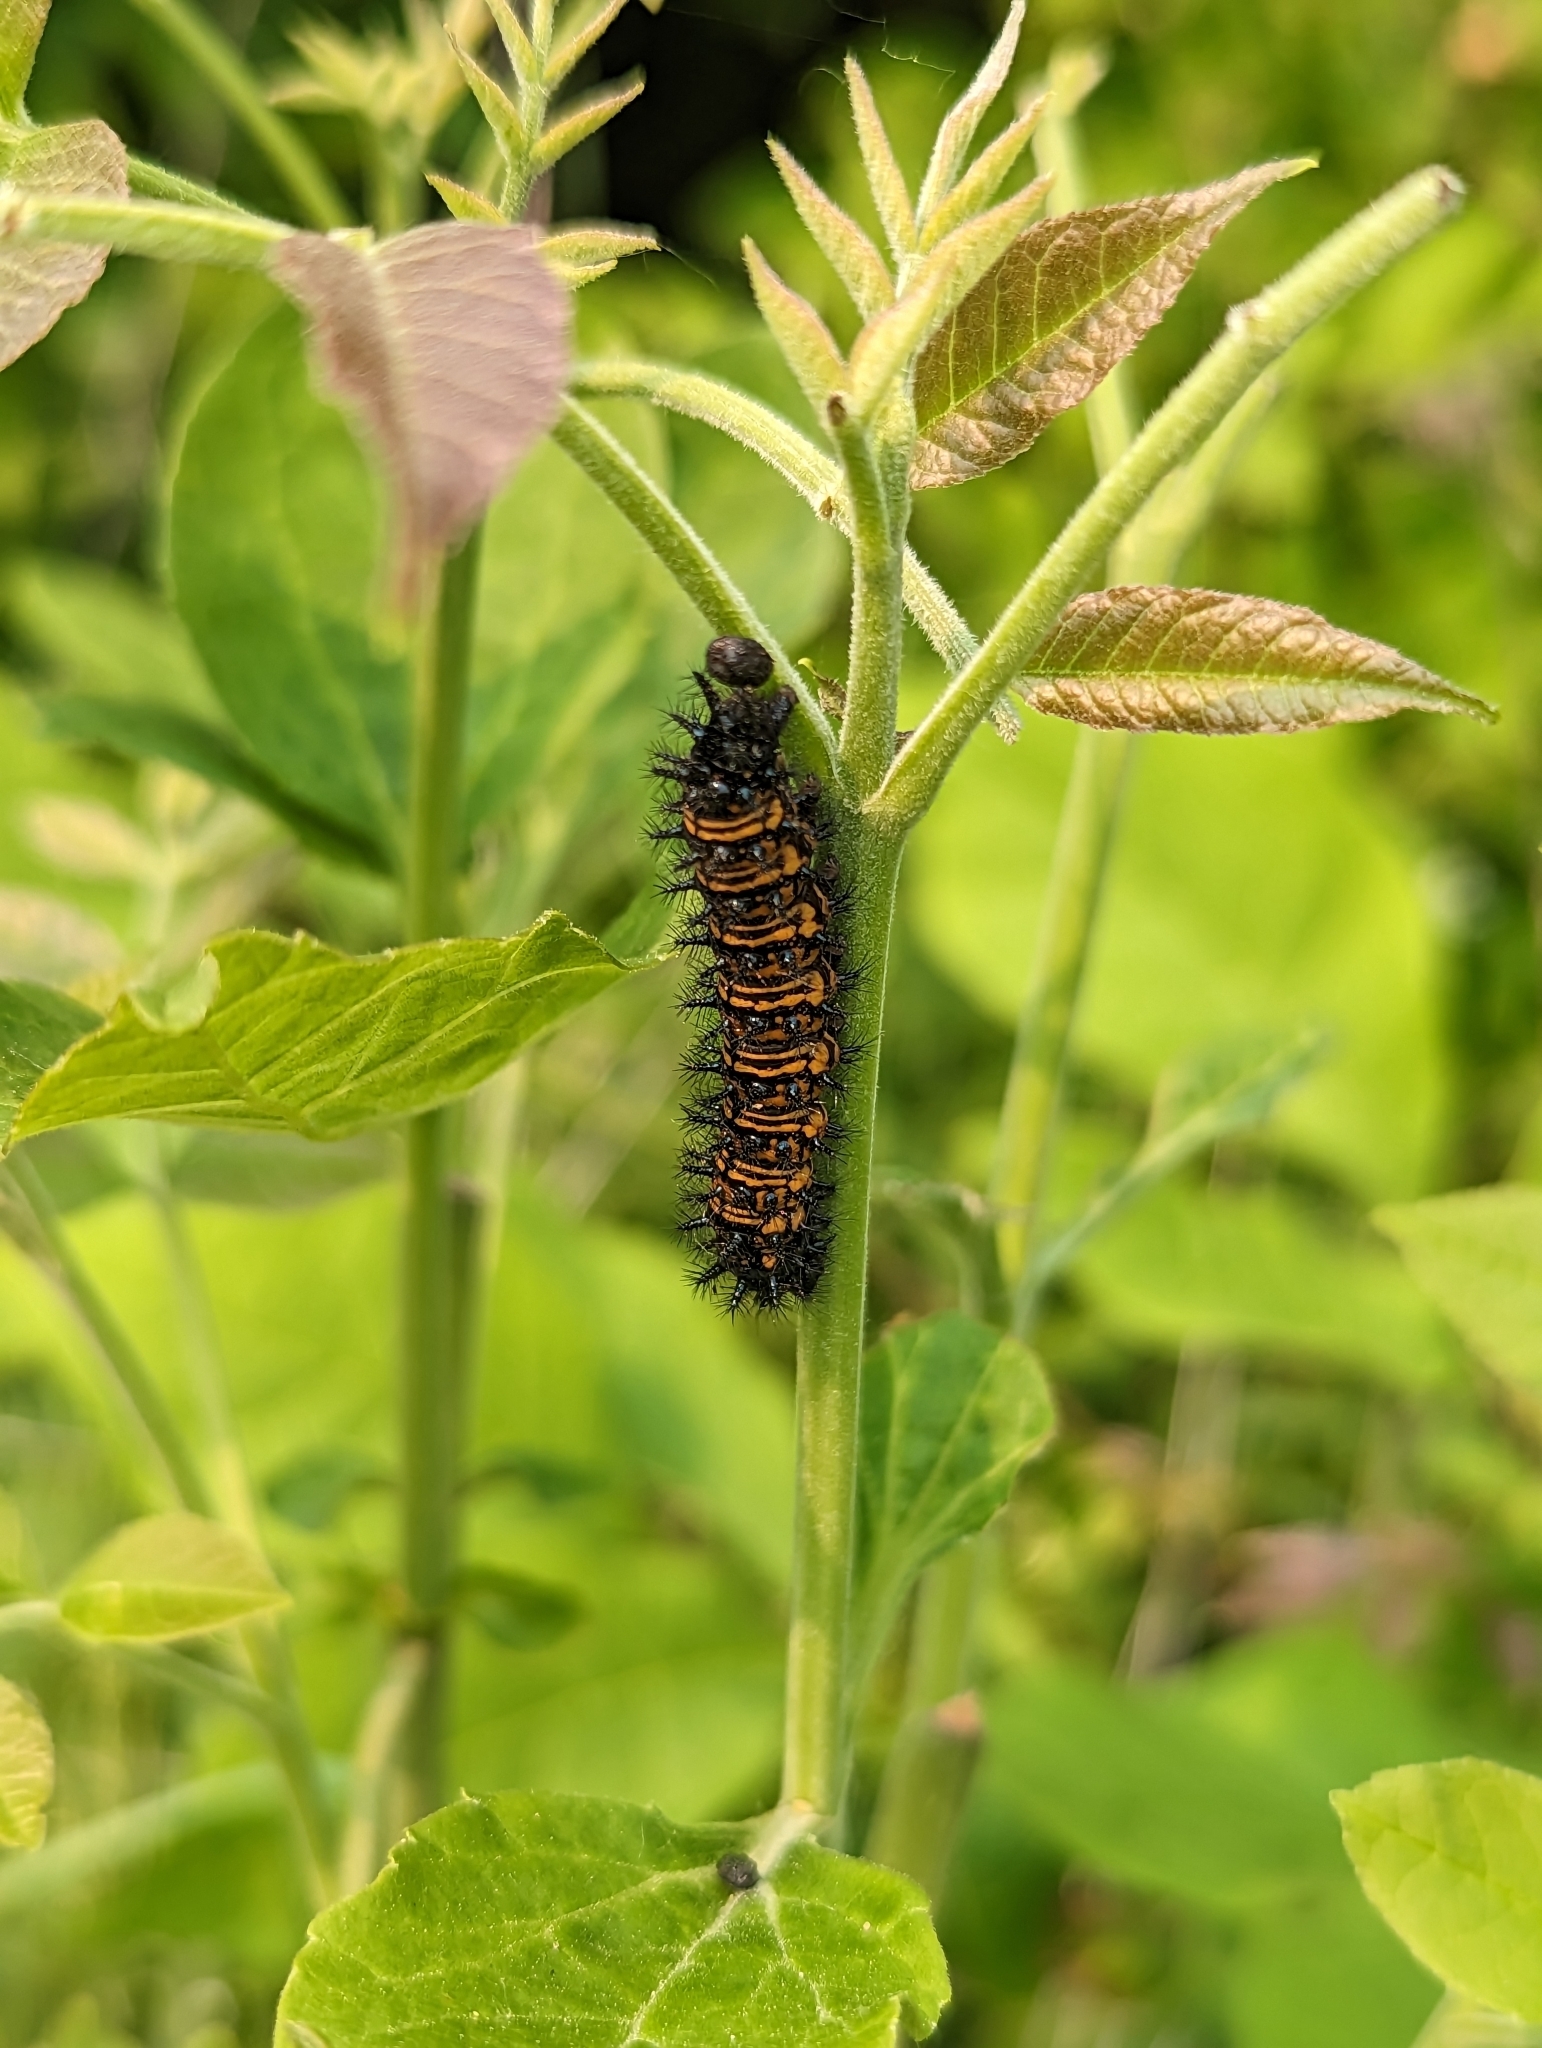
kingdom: Animalia
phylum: Arthropoda
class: Insecta
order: Lepidoptera
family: Nymphalidae
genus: Euphydryas
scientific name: Euphydryas phaeton
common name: Baltimore checkerspot
